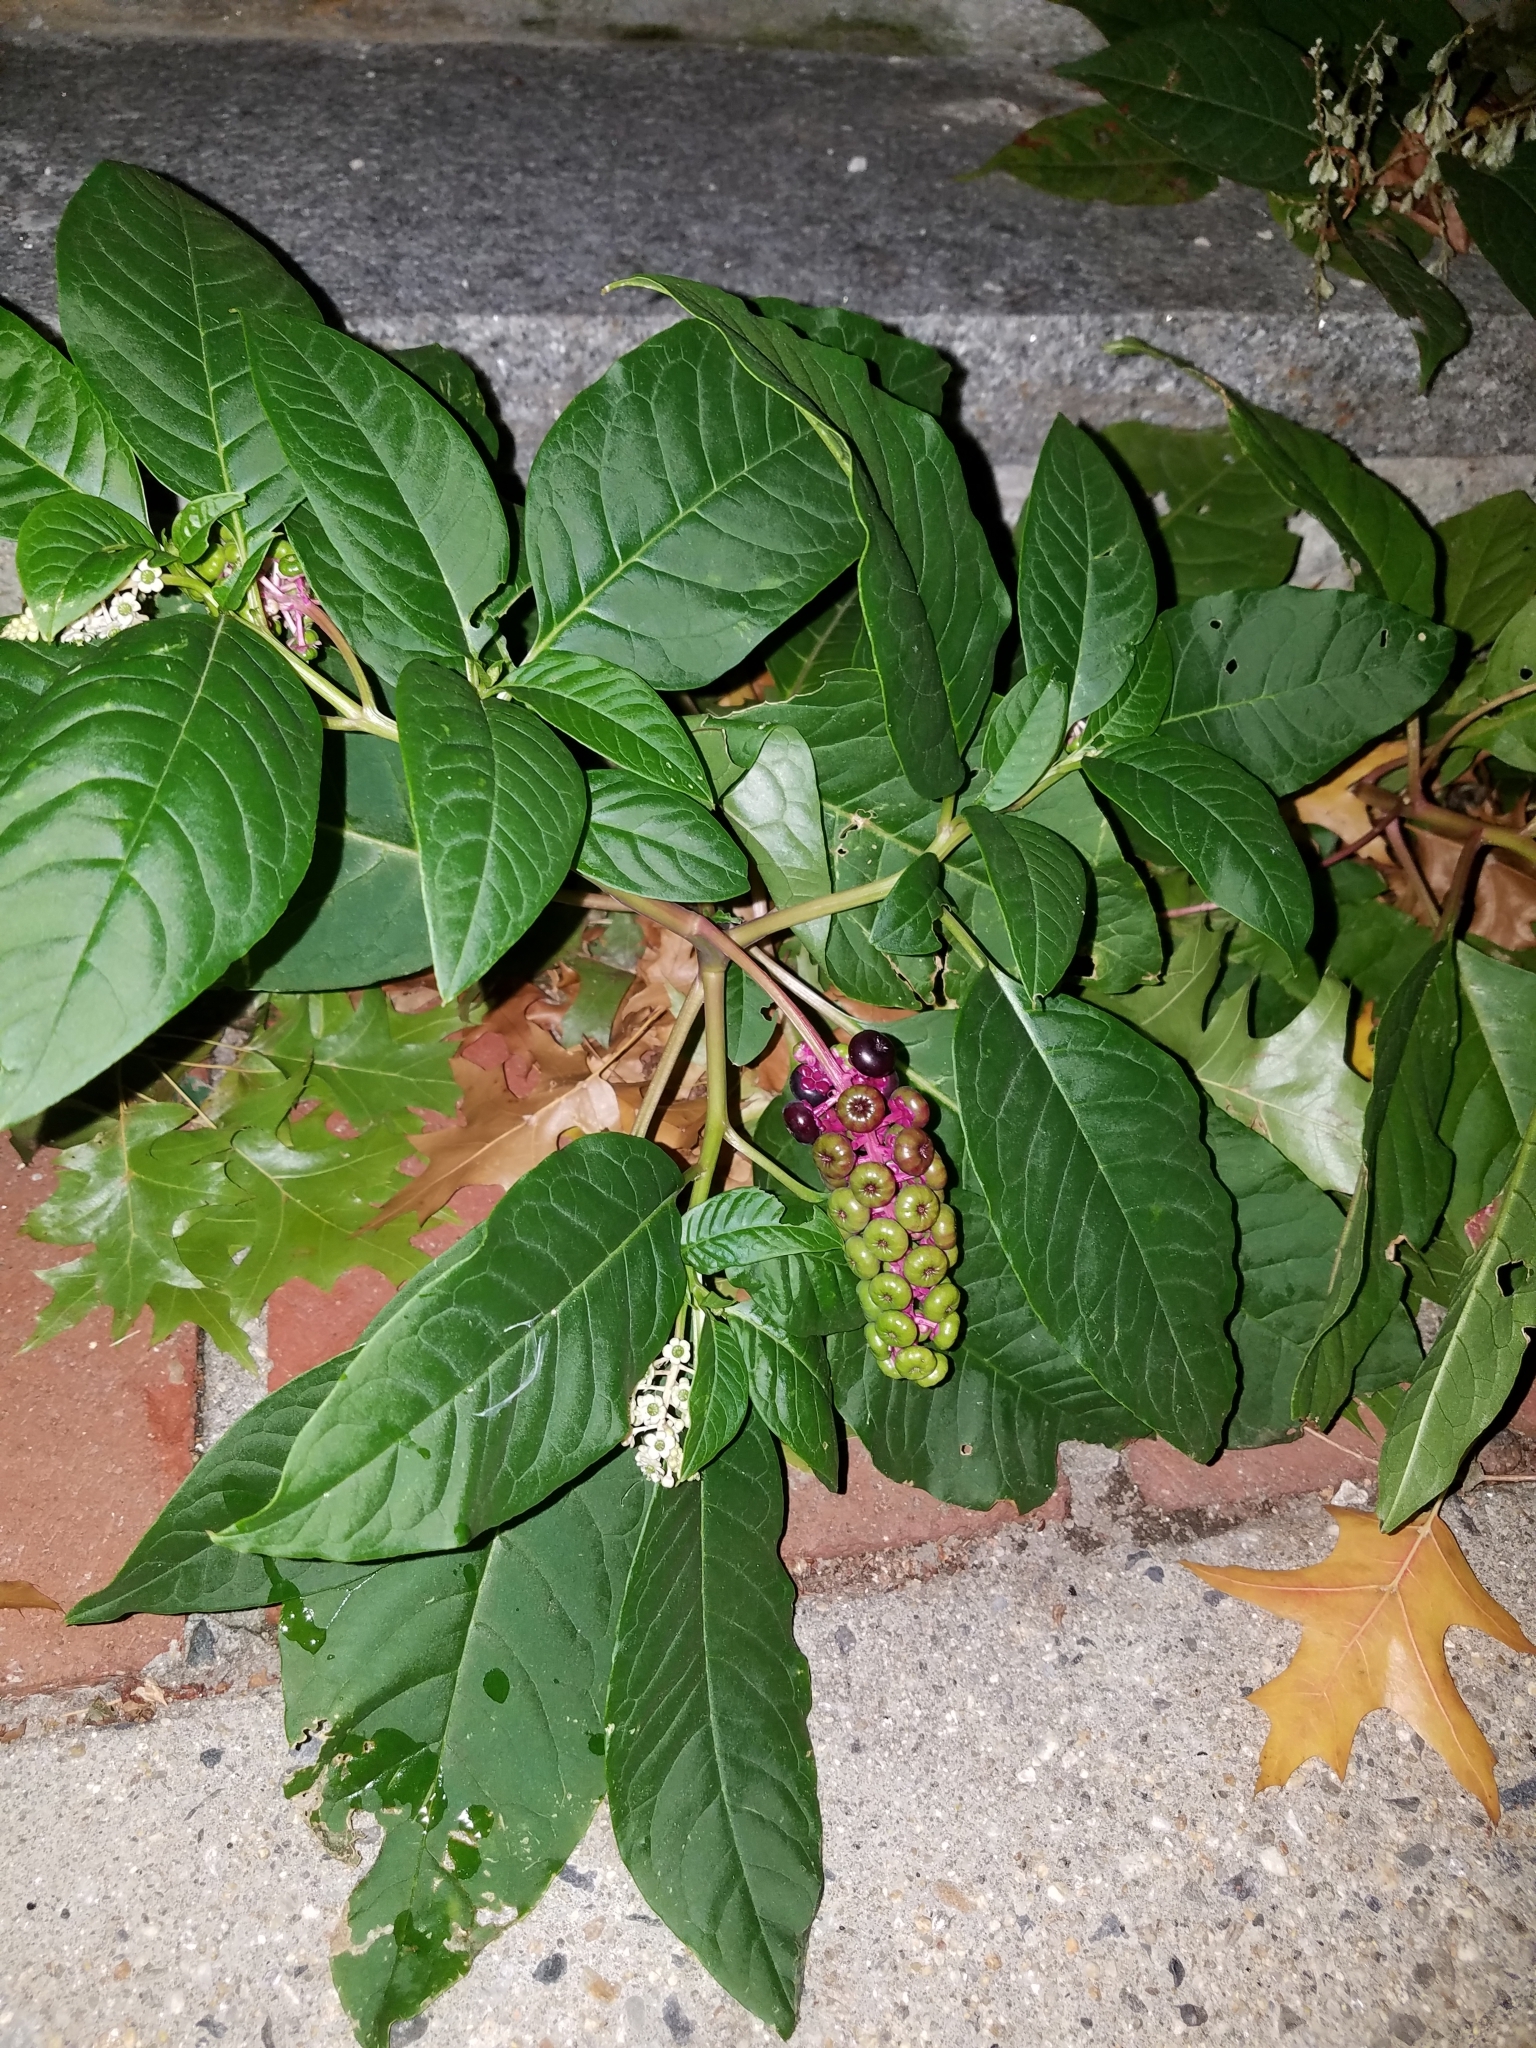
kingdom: Plantae
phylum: Tracheophyta
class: Magnoliopsida
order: Caryophyllales
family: Phytolaccaceae
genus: Phytolacca
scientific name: Phytolacca americana
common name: American pokeweed
